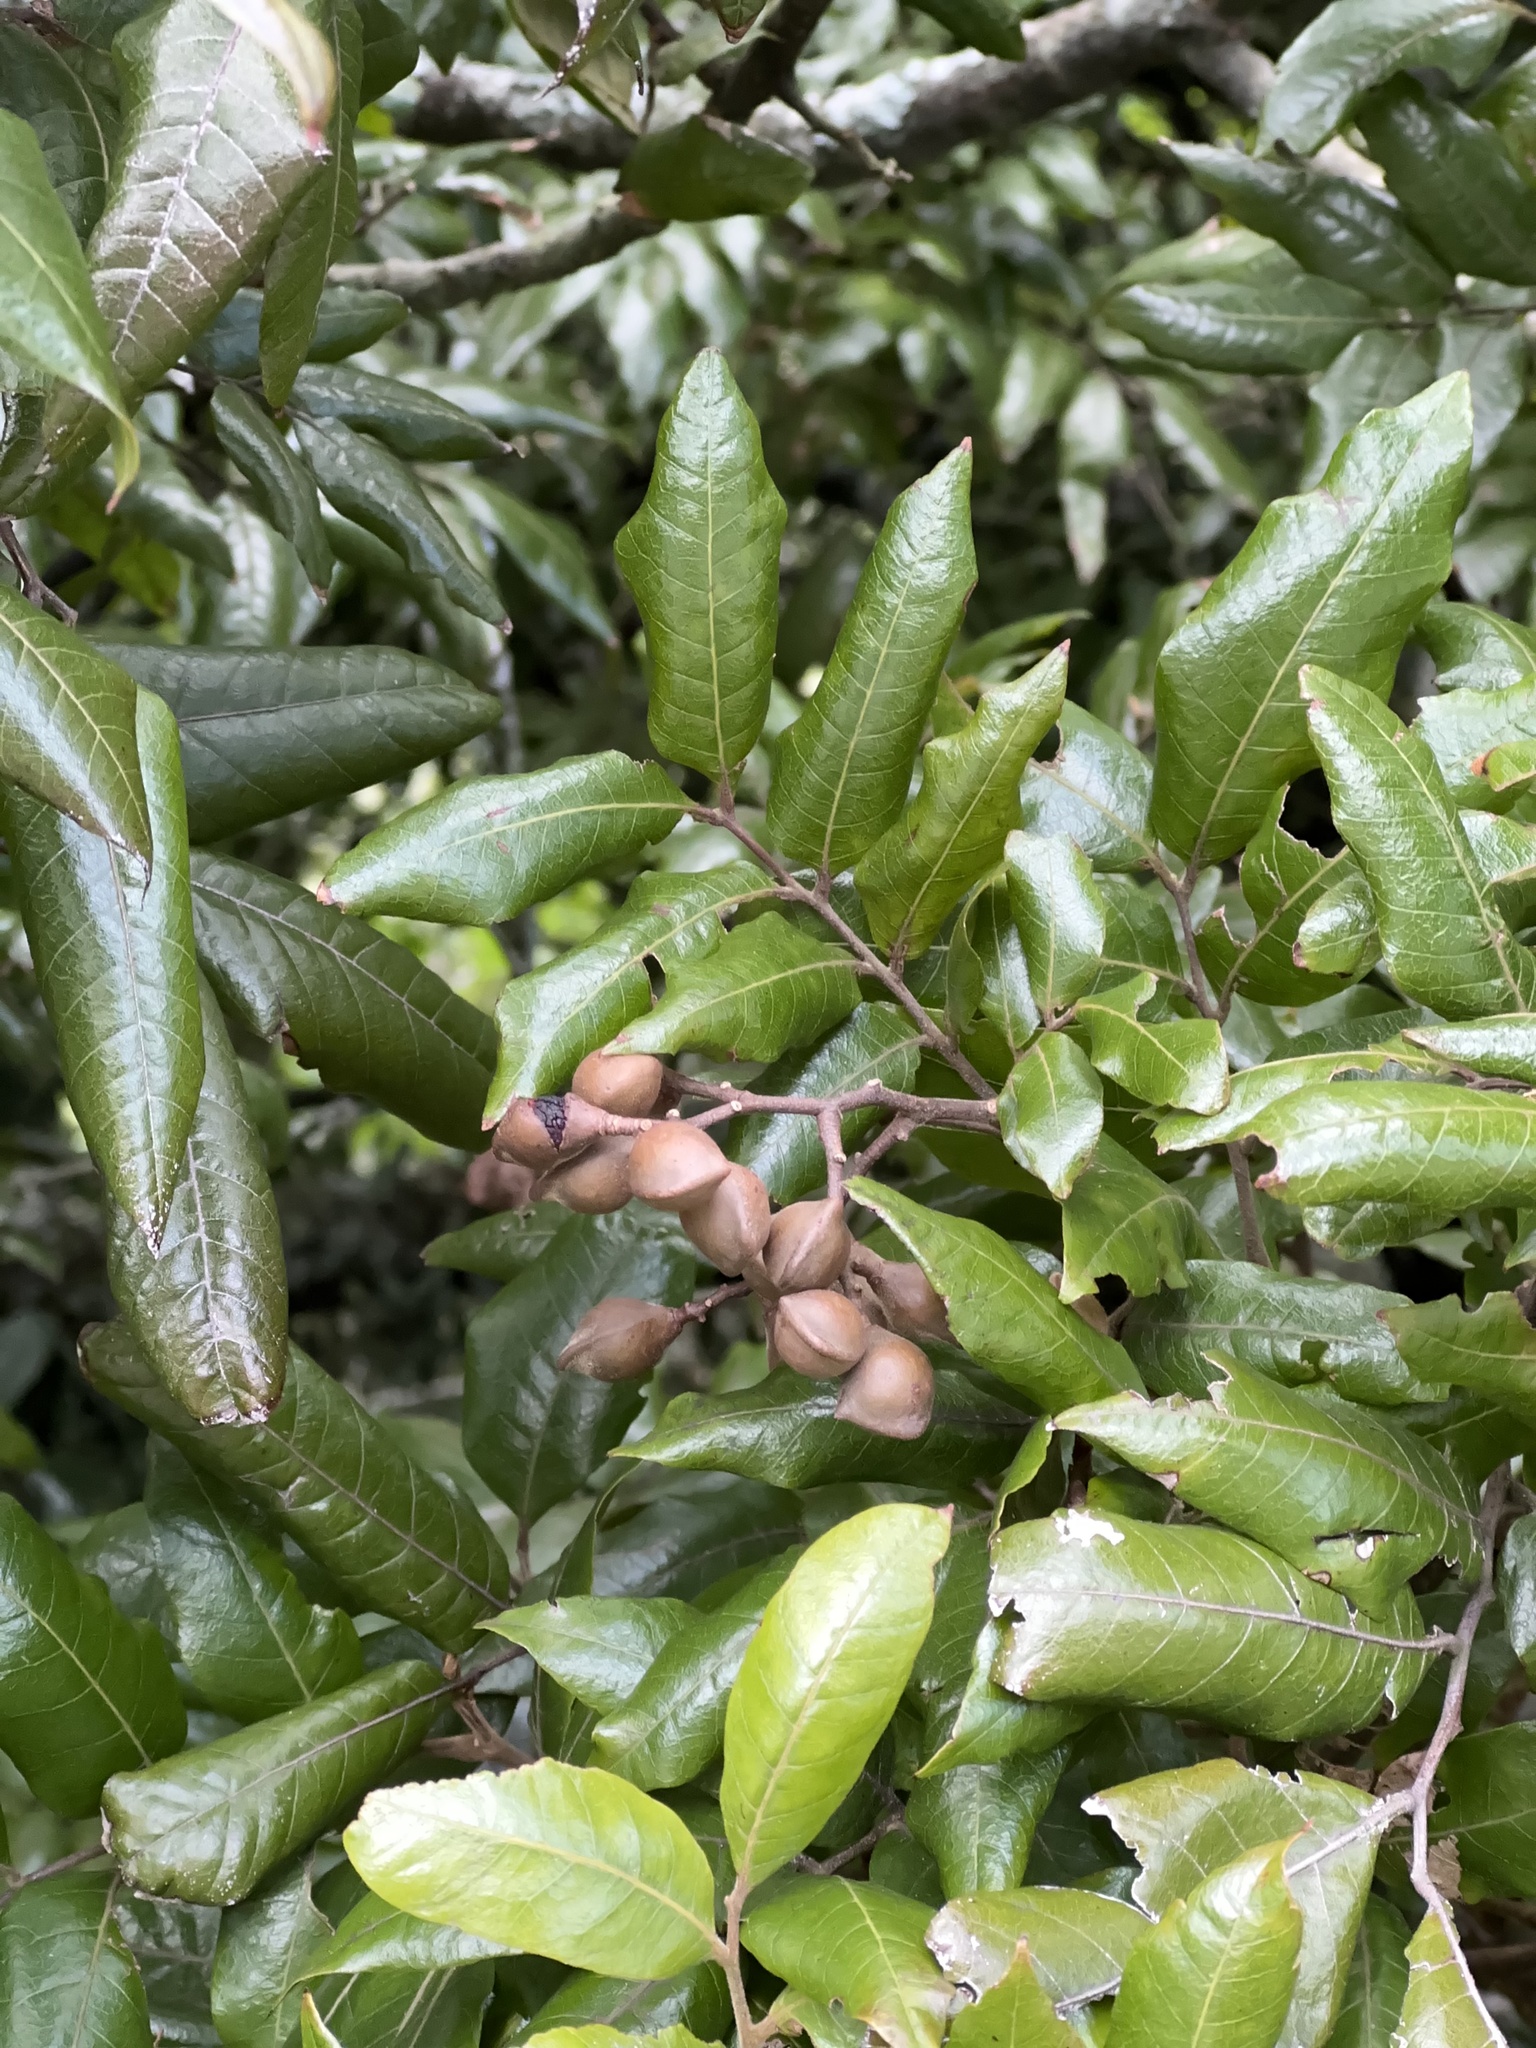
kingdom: Plantae
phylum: Tracheophyta
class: Magnoliopsida
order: Sapindales
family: Sapindaceae
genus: Alectryon
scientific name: Alectryon excelsus
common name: Three kings titoki
